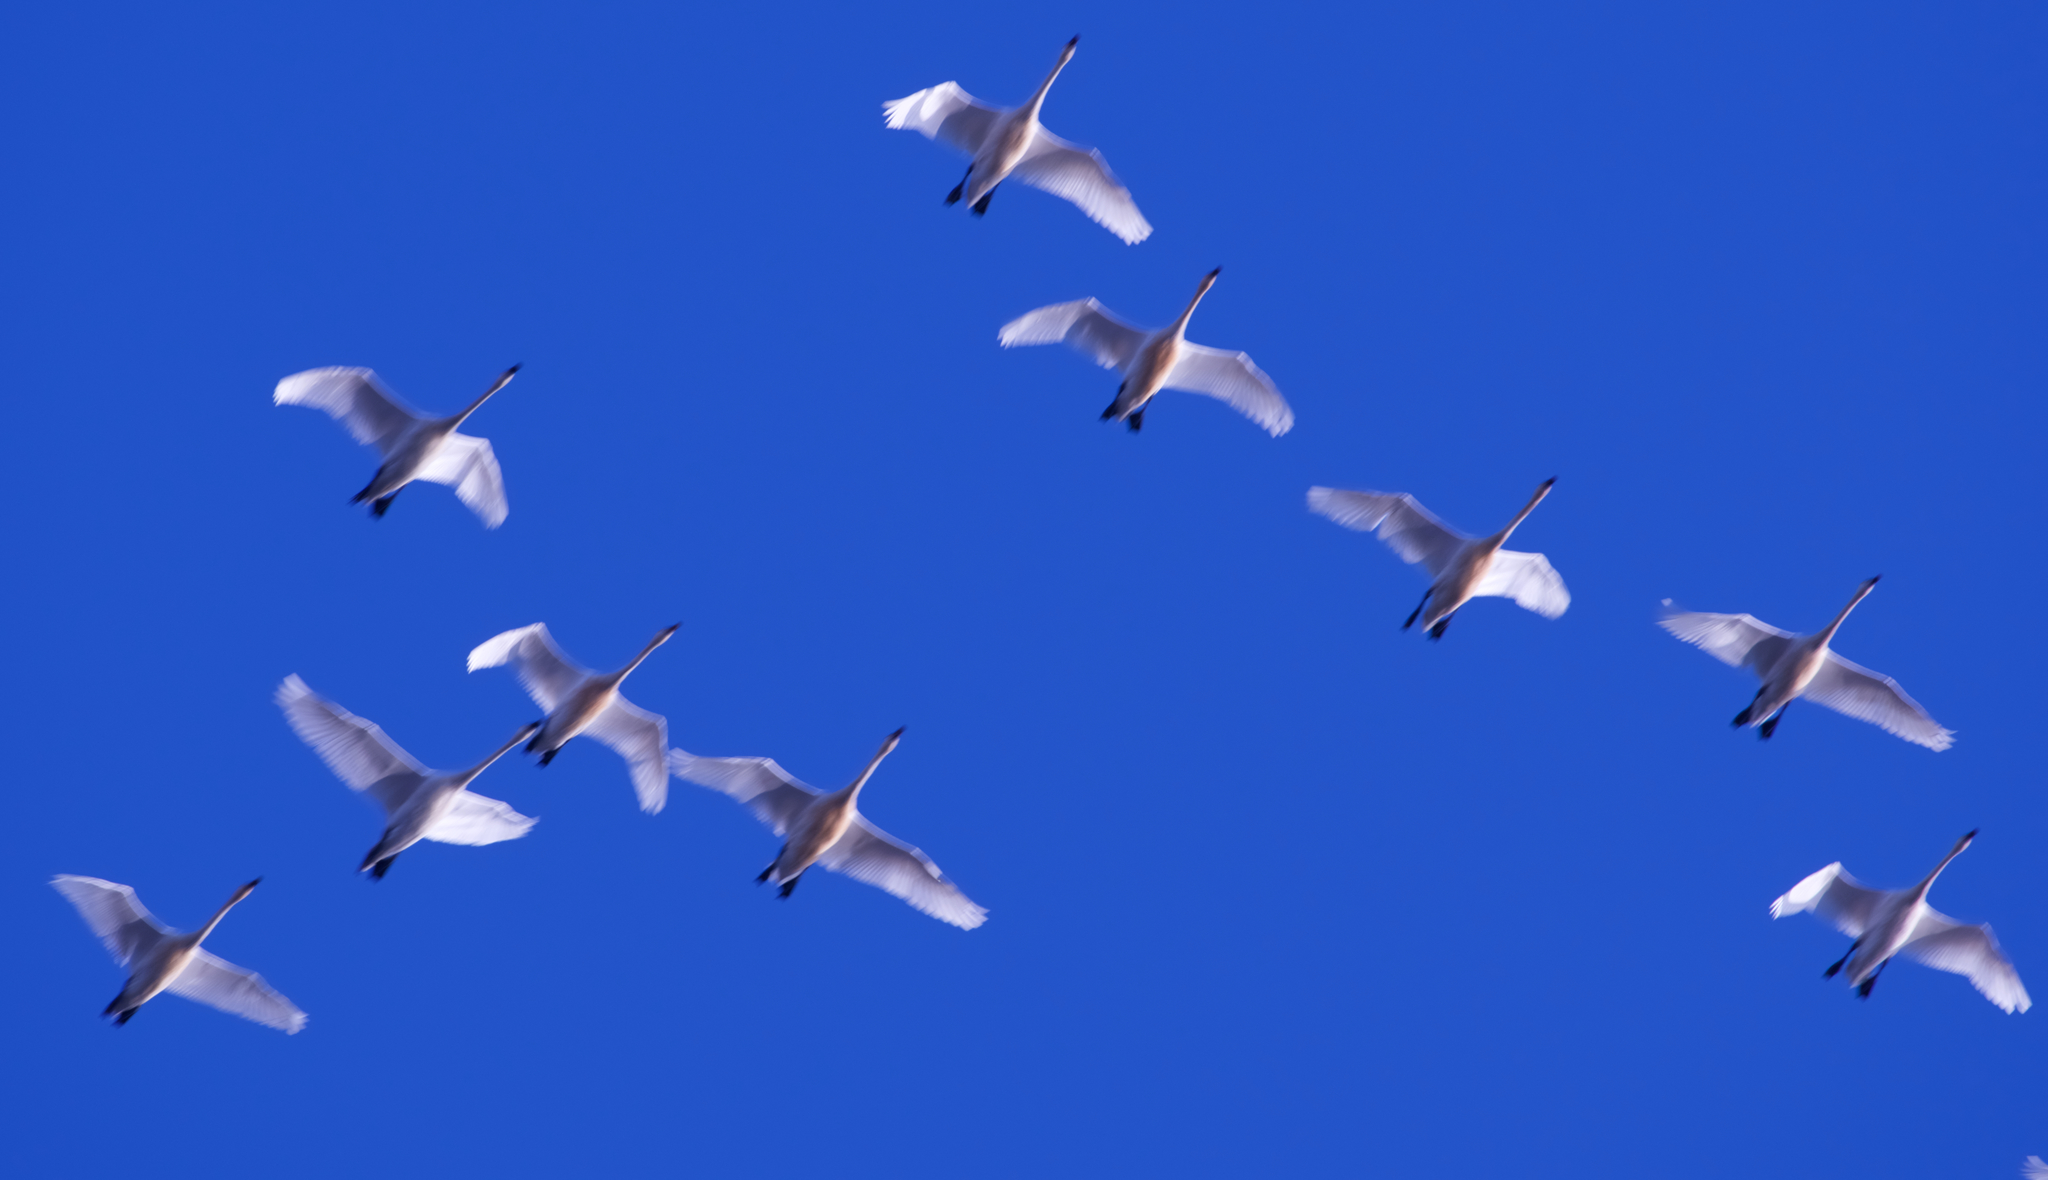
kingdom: Animalia
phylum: Chordata
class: Aves
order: Anseriformes
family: Anatidae
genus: Cygnus
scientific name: Cygnus columbianus
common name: Tundra swan
